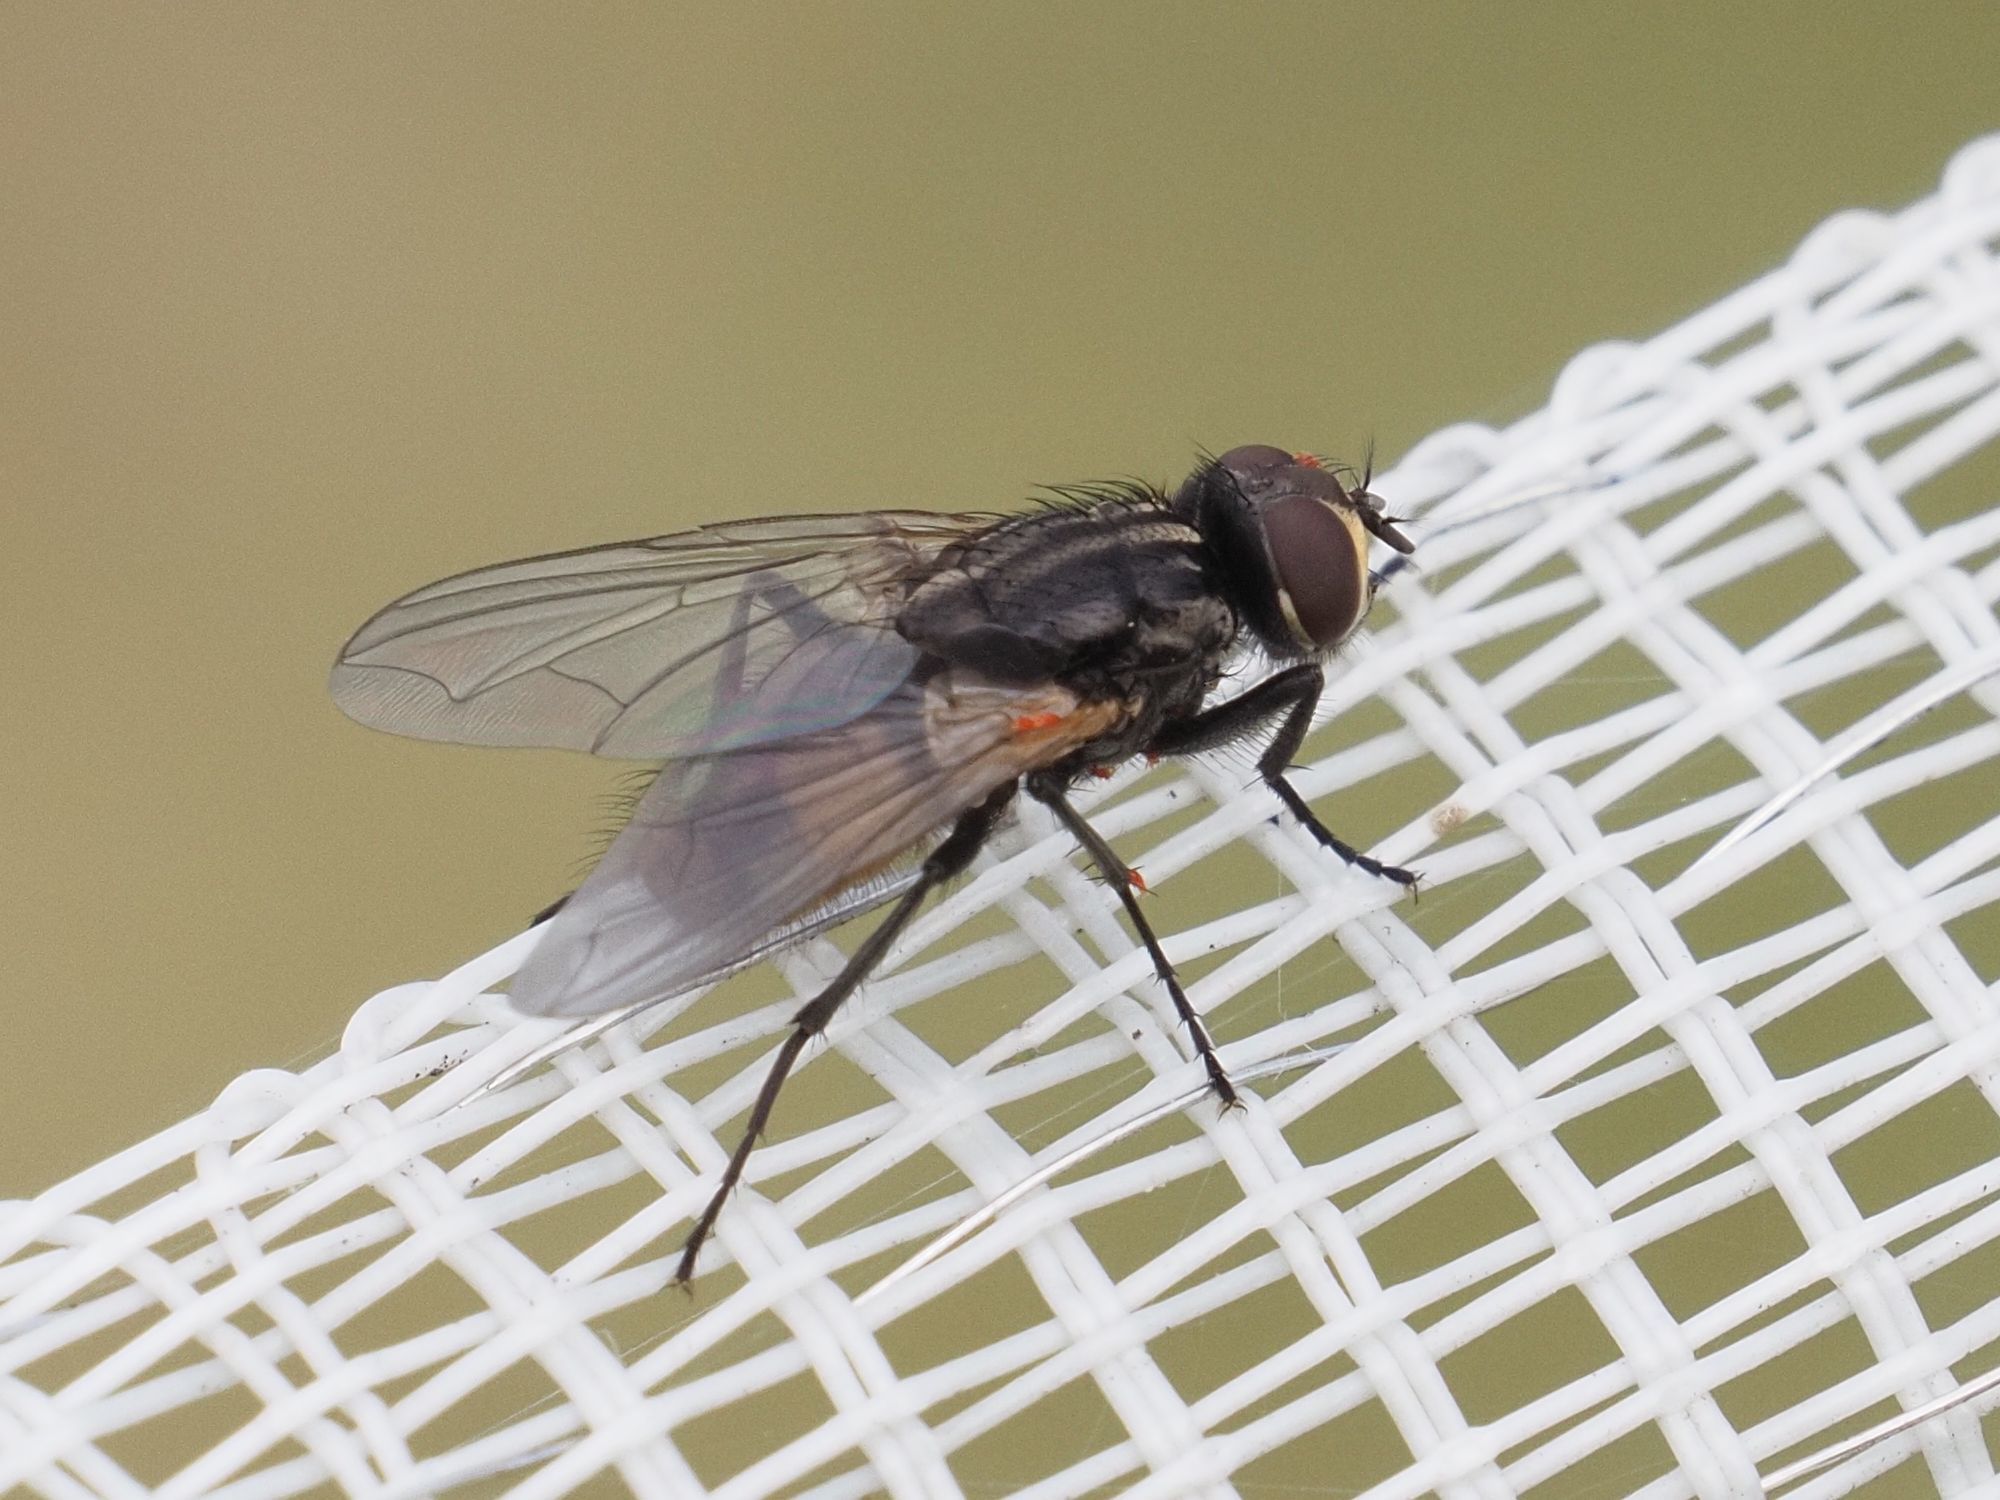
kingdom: Animalia
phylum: Arthropoda
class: Insecta
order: Diptera
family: Muscidae
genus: Musca
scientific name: Musca domestica
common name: House fly
